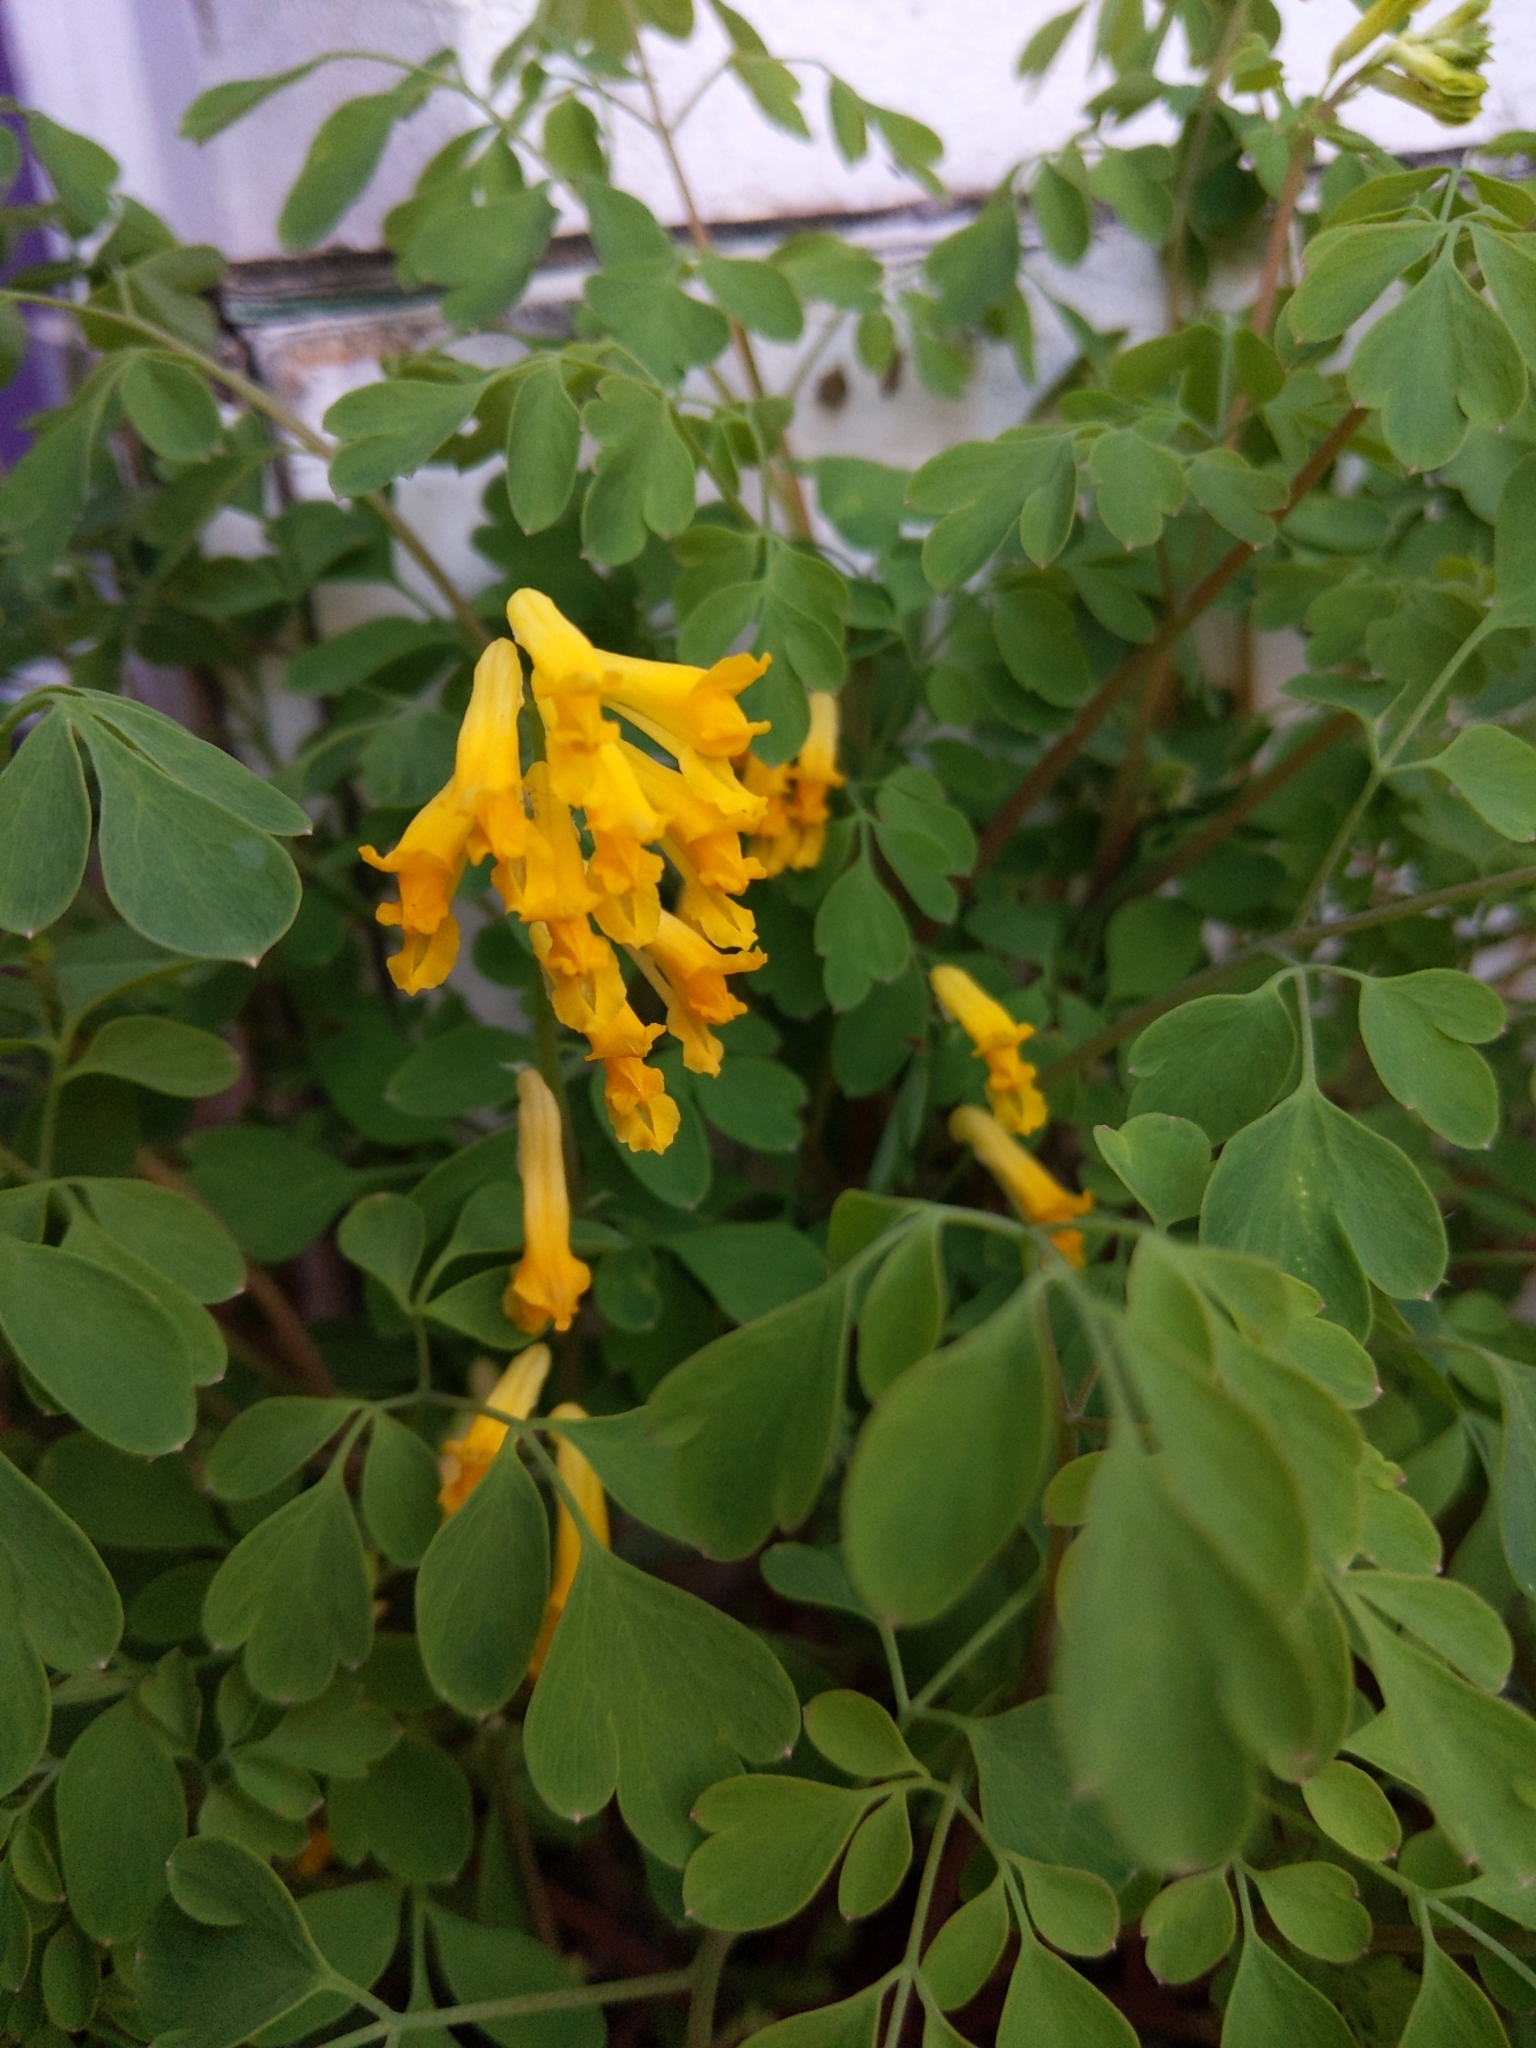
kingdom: Plantae
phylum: Tracheophyta
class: Magnoliopsida
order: Ranunculales
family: Papaveraceae
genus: Pseudofumaria
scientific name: Pseudofumaria lutea
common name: Yellow corydalis
